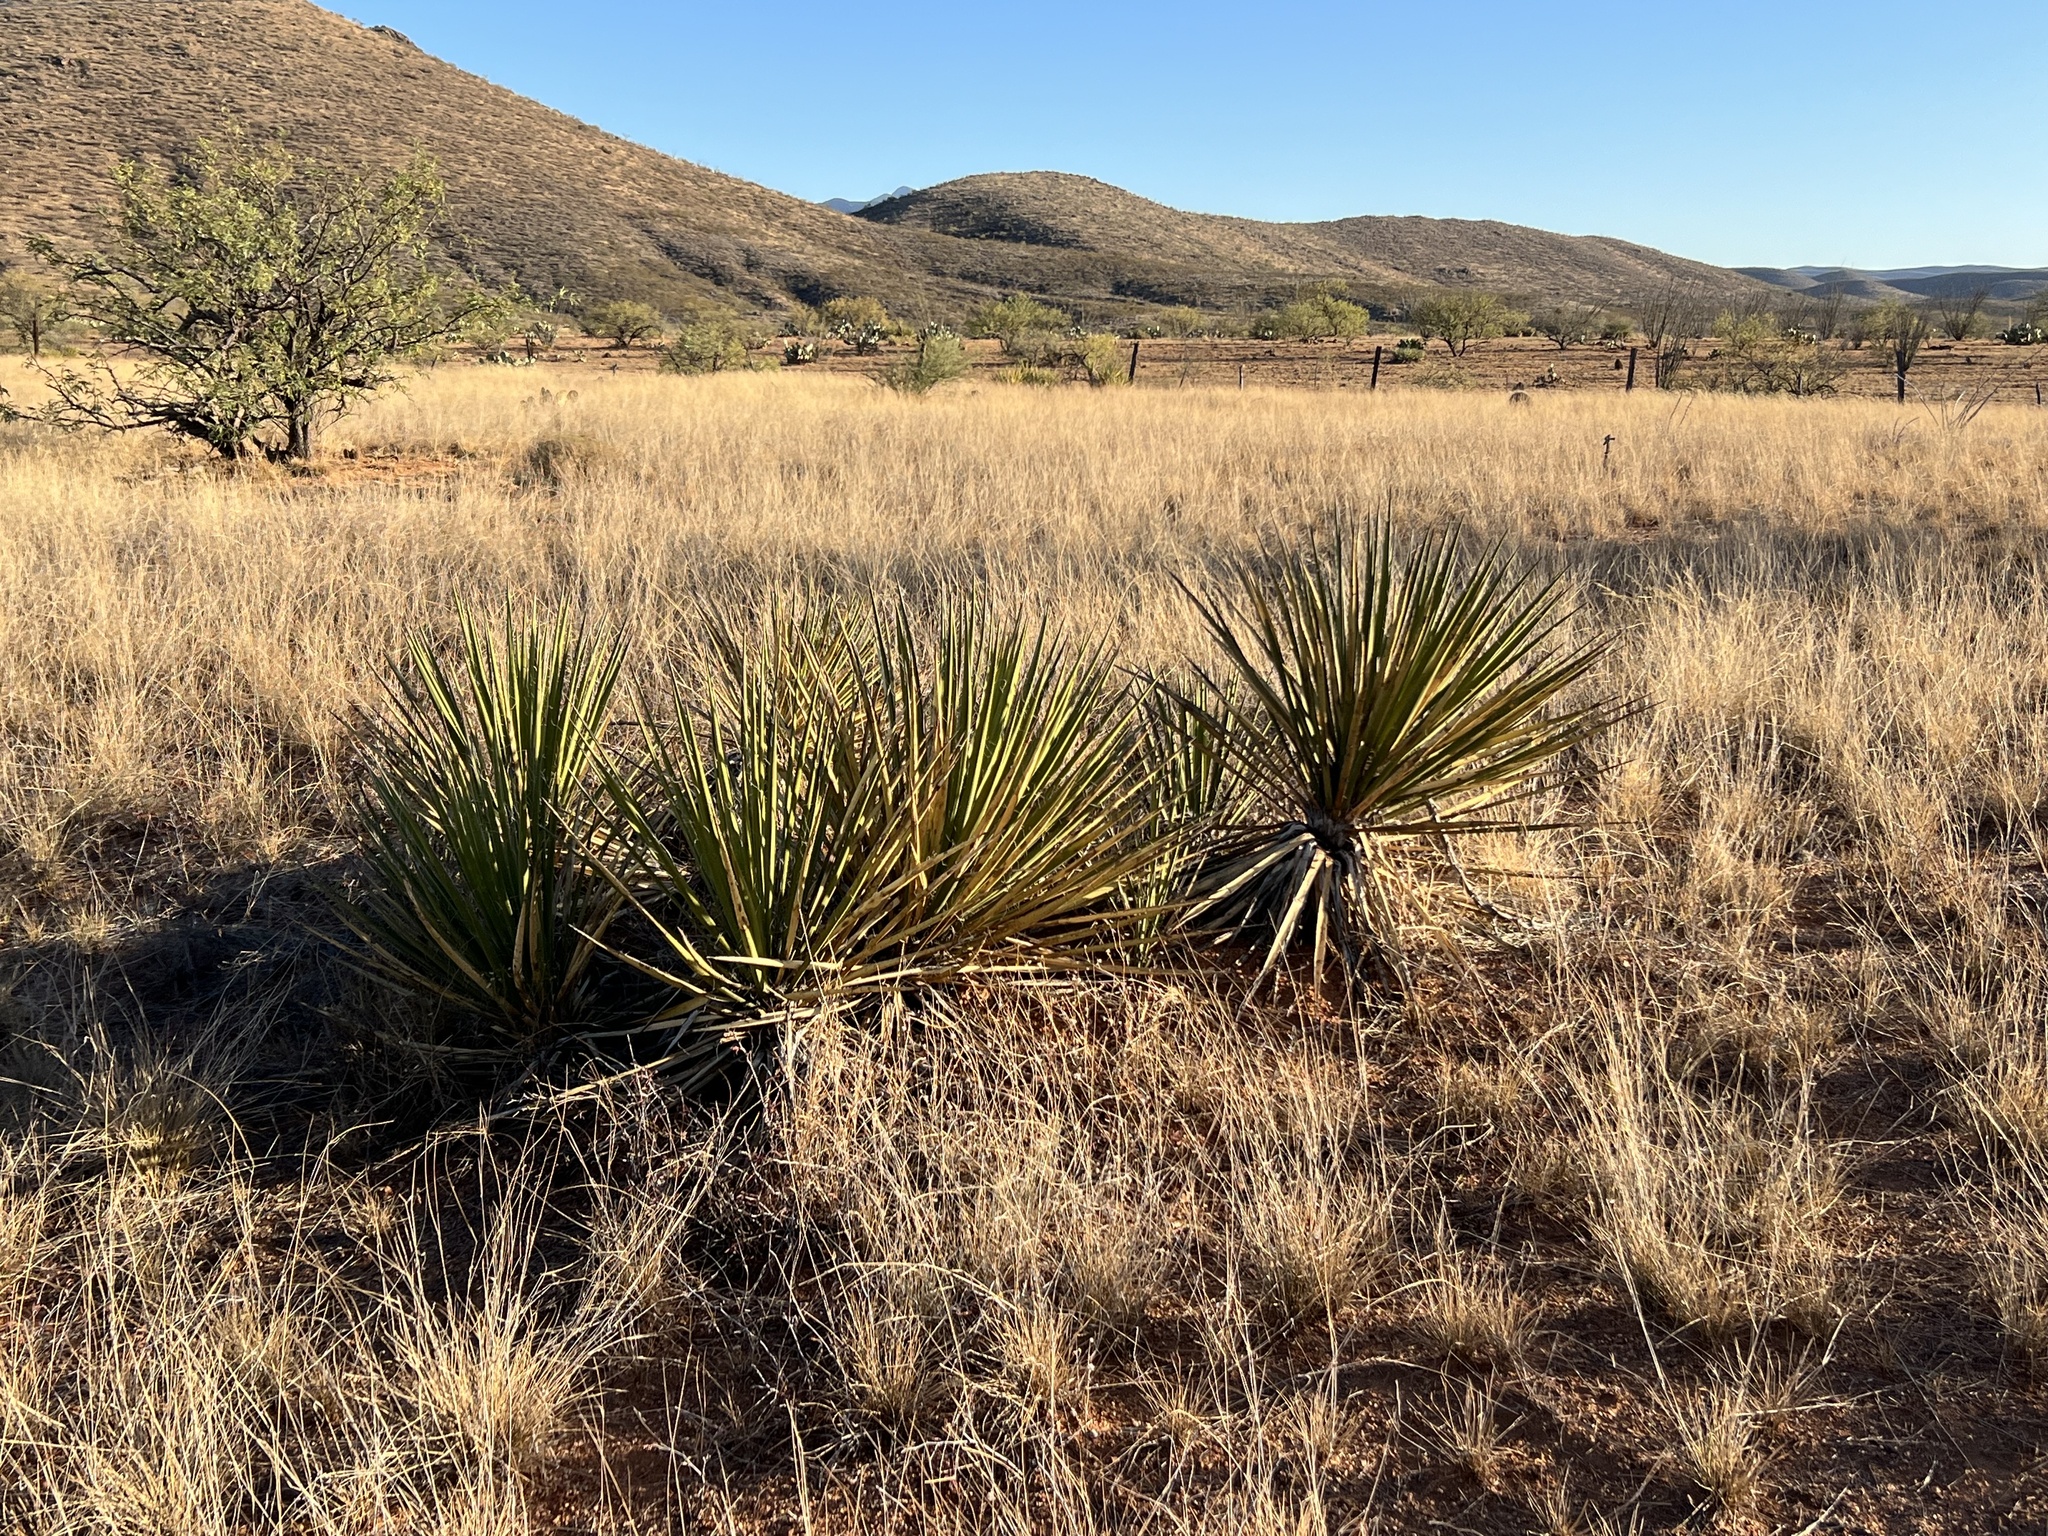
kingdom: Plantae
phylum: Tracheophyta
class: Liliopsida
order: Asparagales
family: Asparagaceae
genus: Yucca
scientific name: Yucca baccata
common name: Banana yucca
